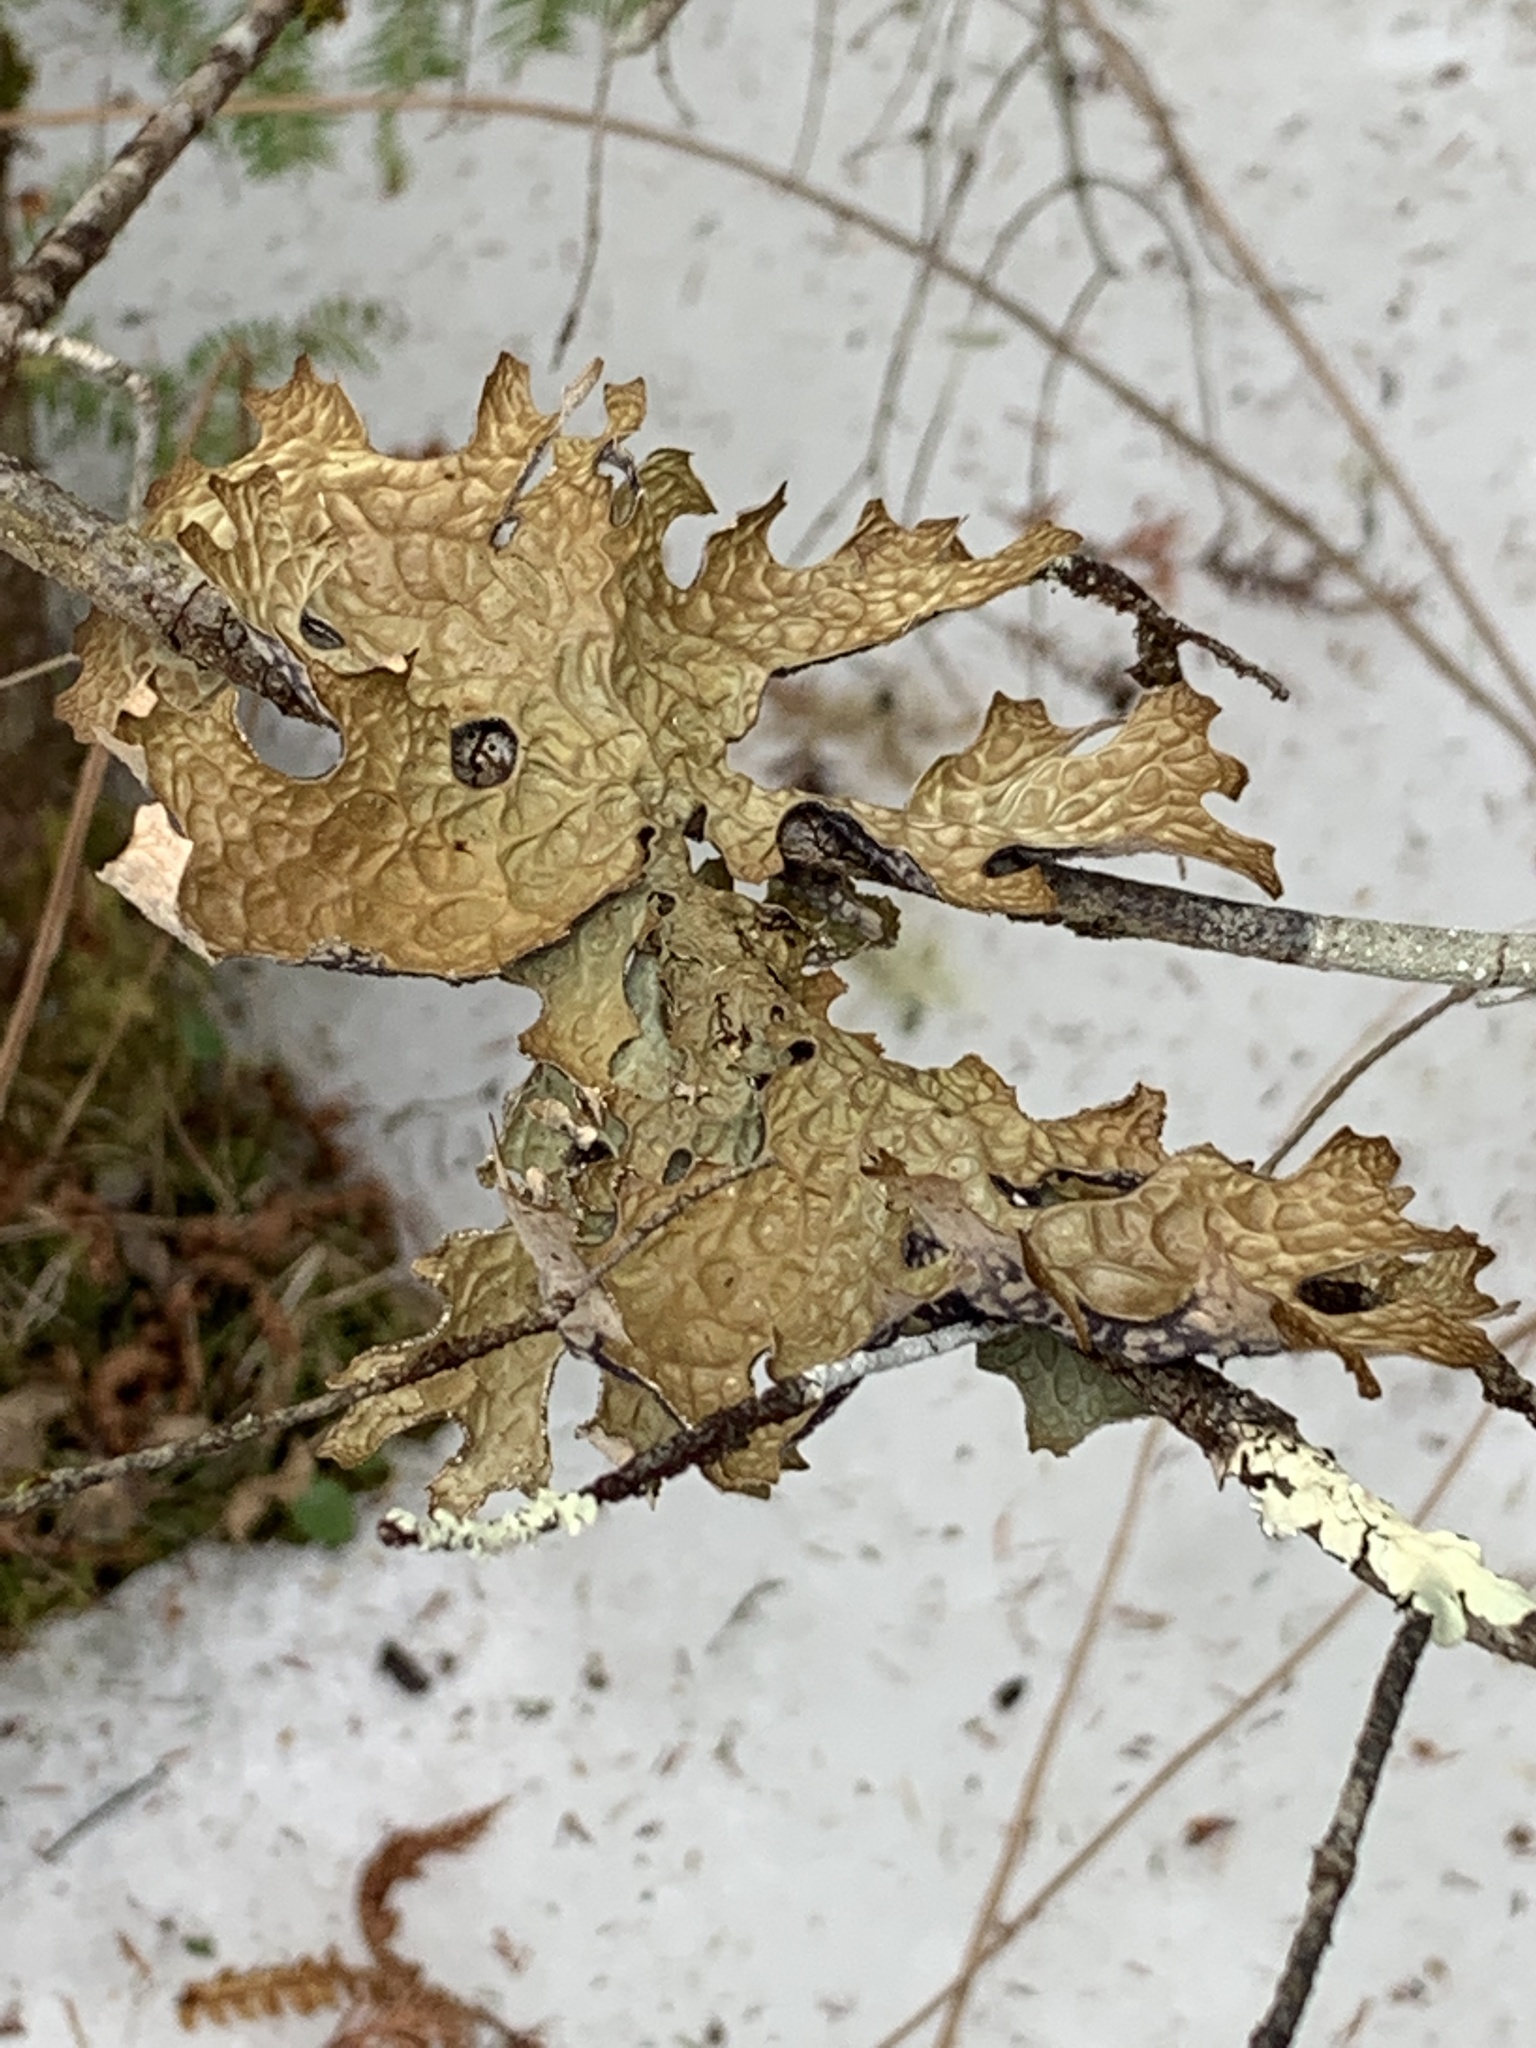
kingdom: Fungi
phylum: Ascomycota
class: Lecanoromycetes
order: Peltigerales
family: Lobariaceae
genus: Lobaria
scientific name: Lobaria pulmonaria
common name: Lungwort
